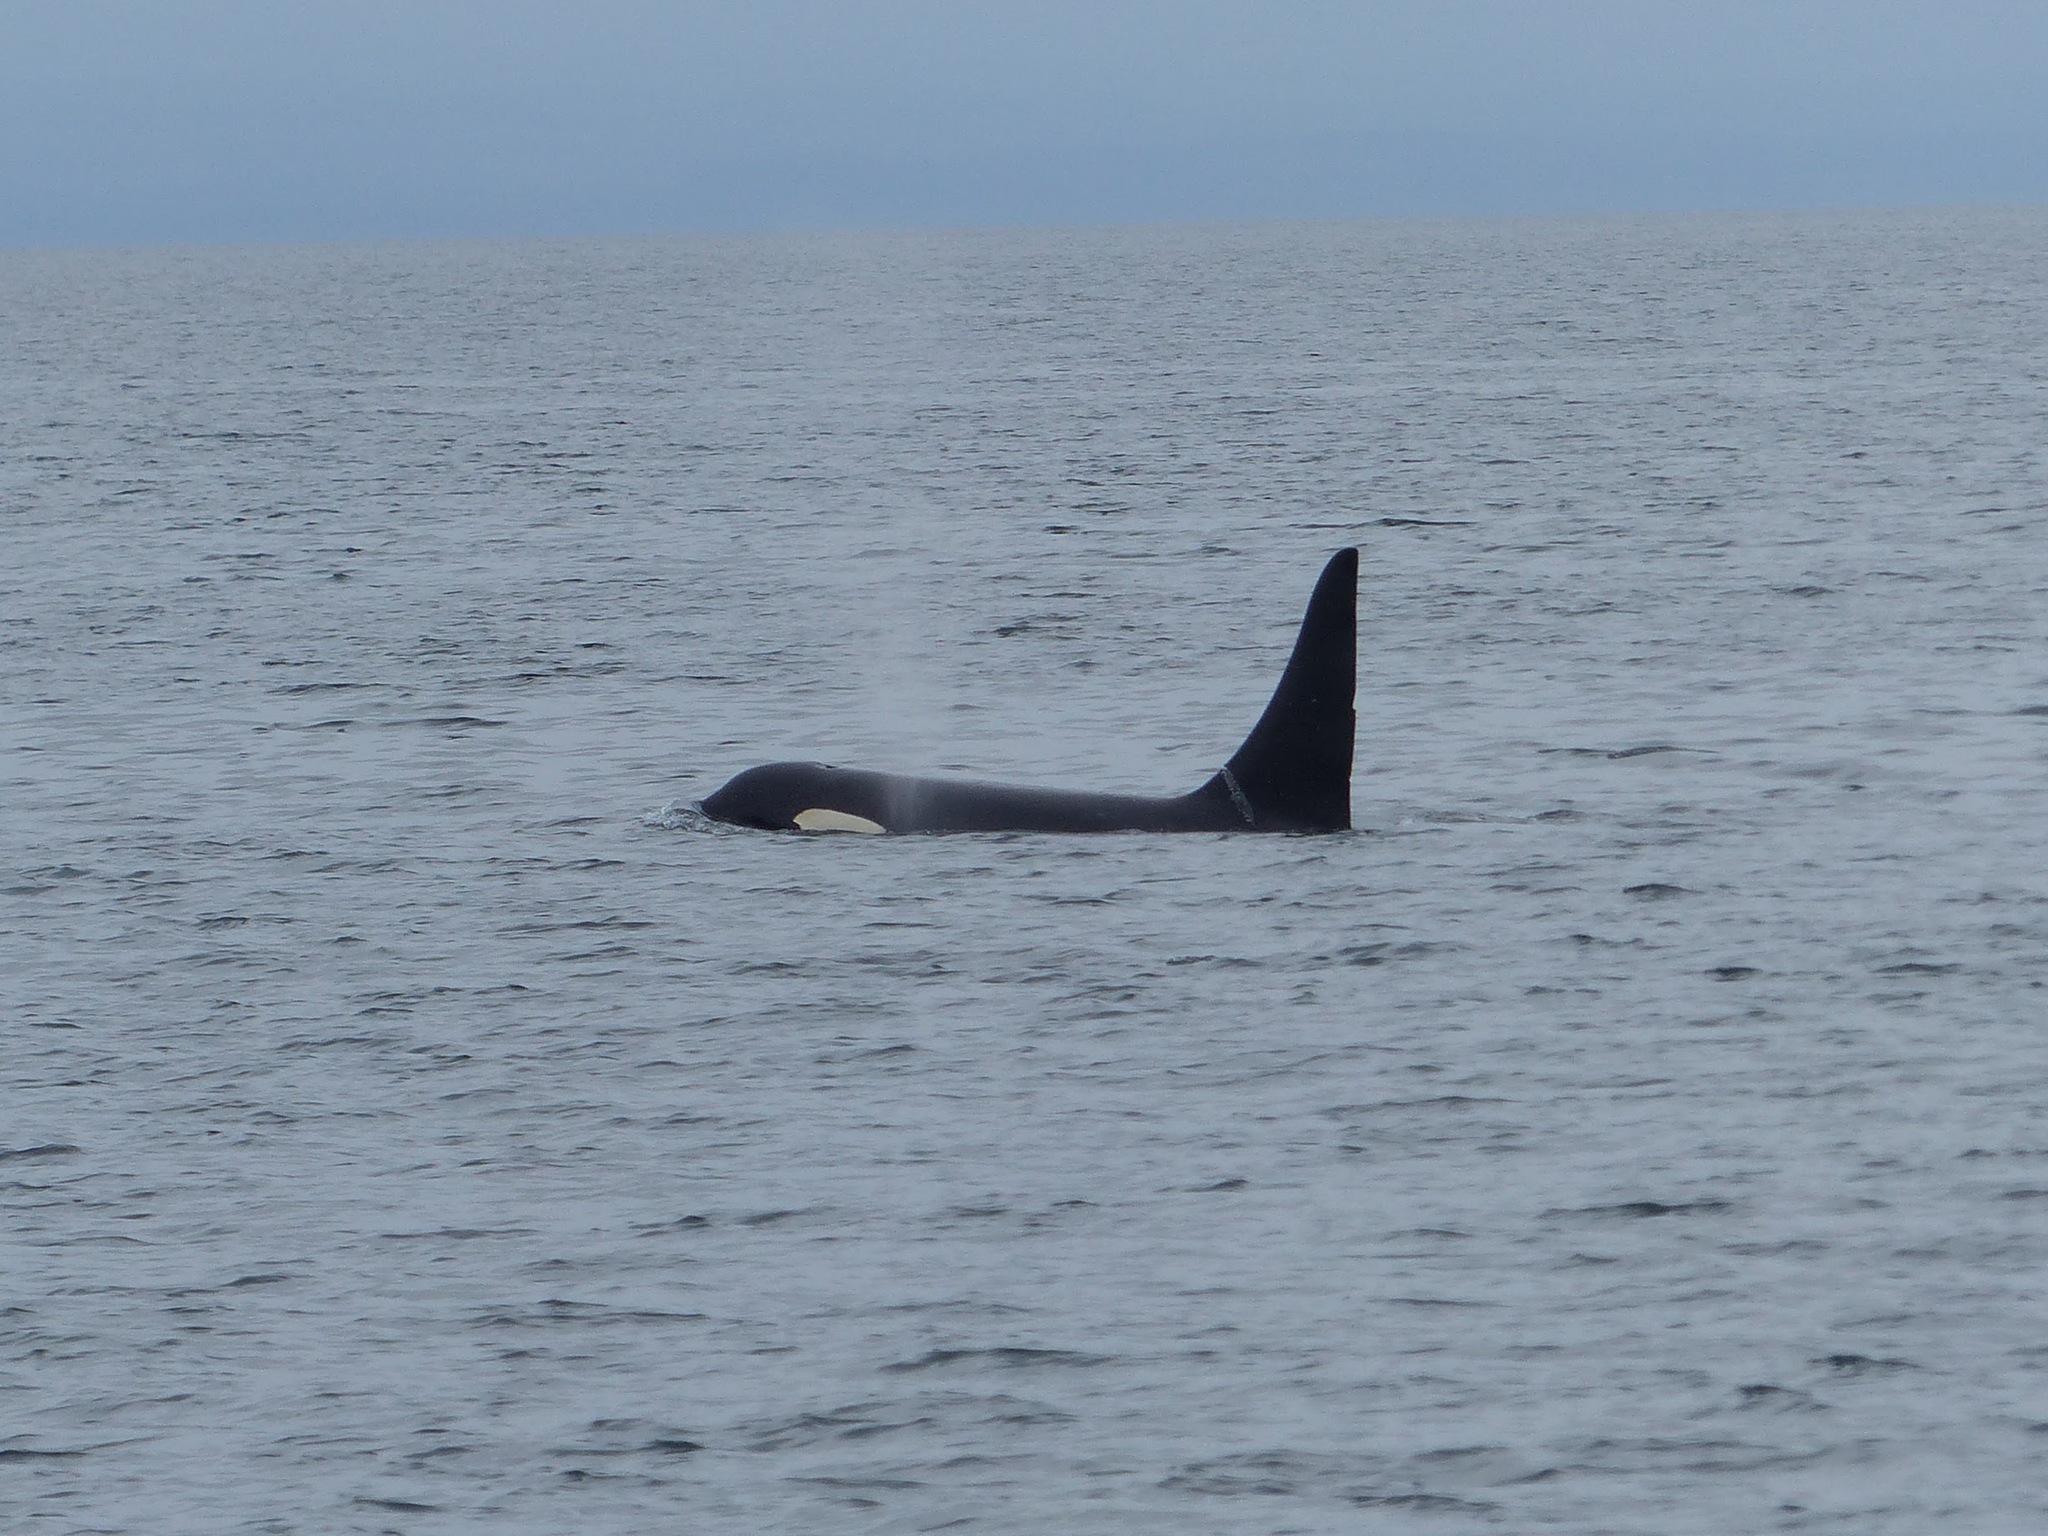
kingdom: Animalia
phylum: Chordata
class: Mammalia
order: Cetacea
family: Delphinidae
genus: Orcinus
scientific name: Orcinus orca
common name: Killer whale
